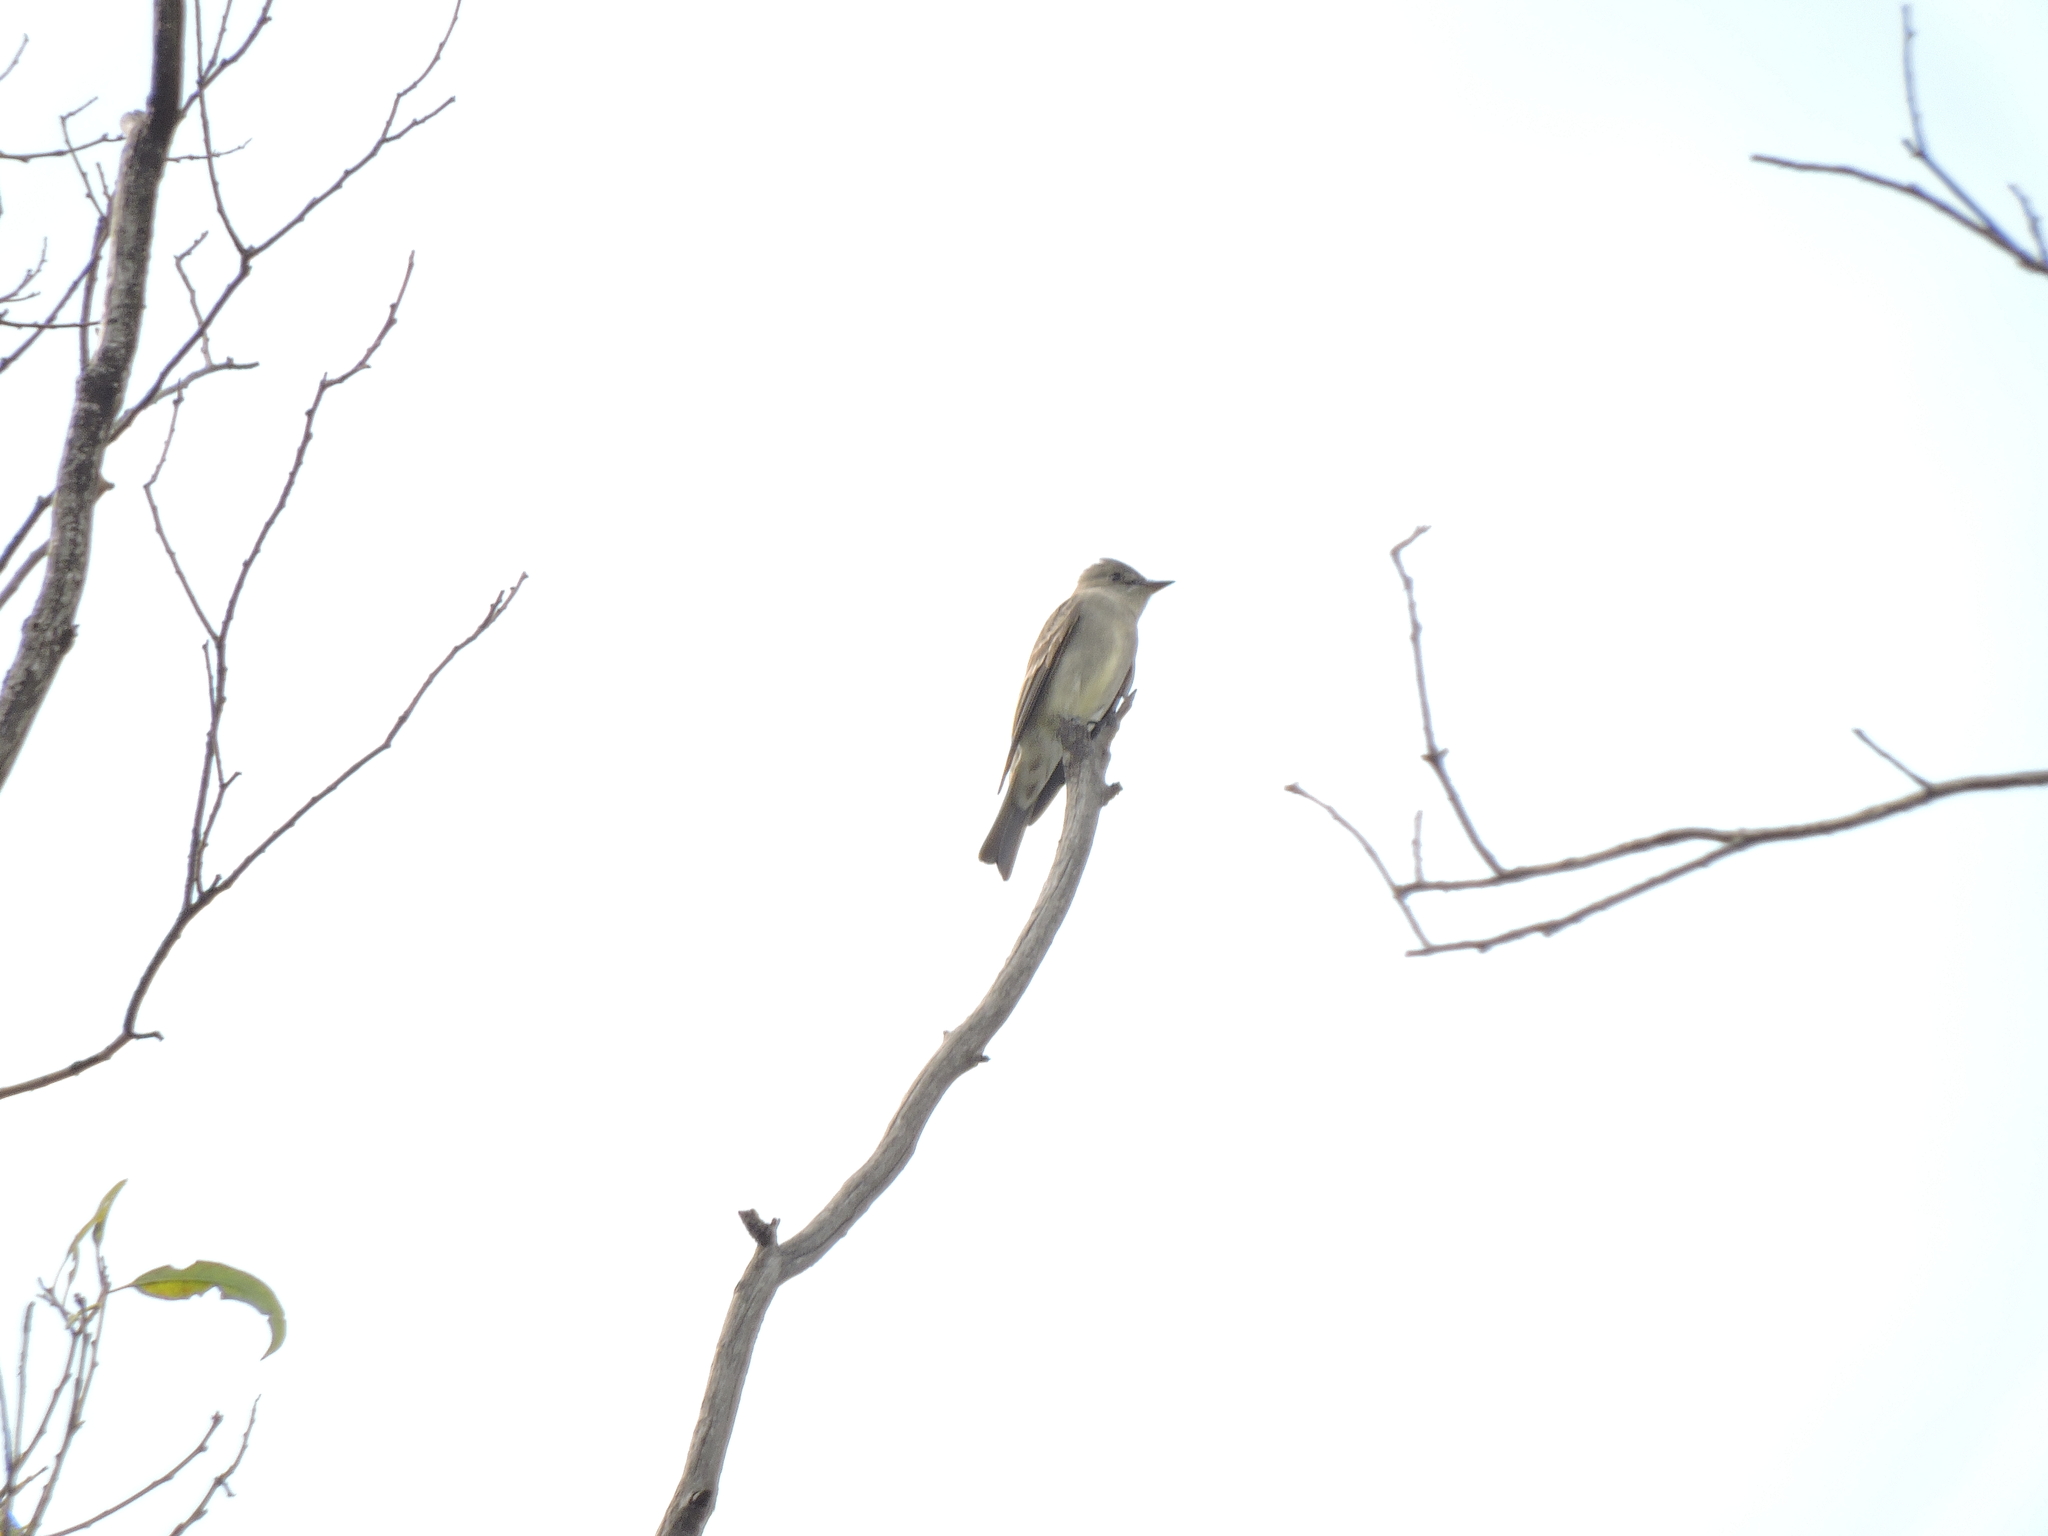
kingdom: Animalia
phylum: Chordata
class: Aves
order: Passeriformes
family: Tyrannidae
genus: Contopus
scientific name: Contopus sordidulus
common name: Western wood-pewee
